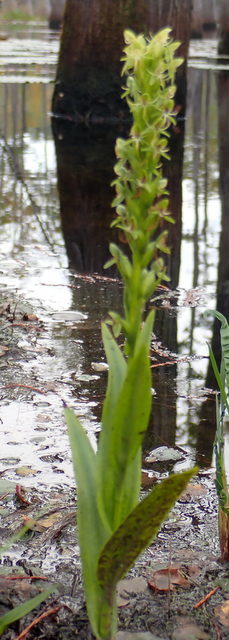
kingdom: Plantae
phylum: Tracheophyta
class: Liliopsida
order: Asparagales
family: Orchidaceae
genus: Habenaria
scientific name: Habenaria repens
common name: Water orchid
